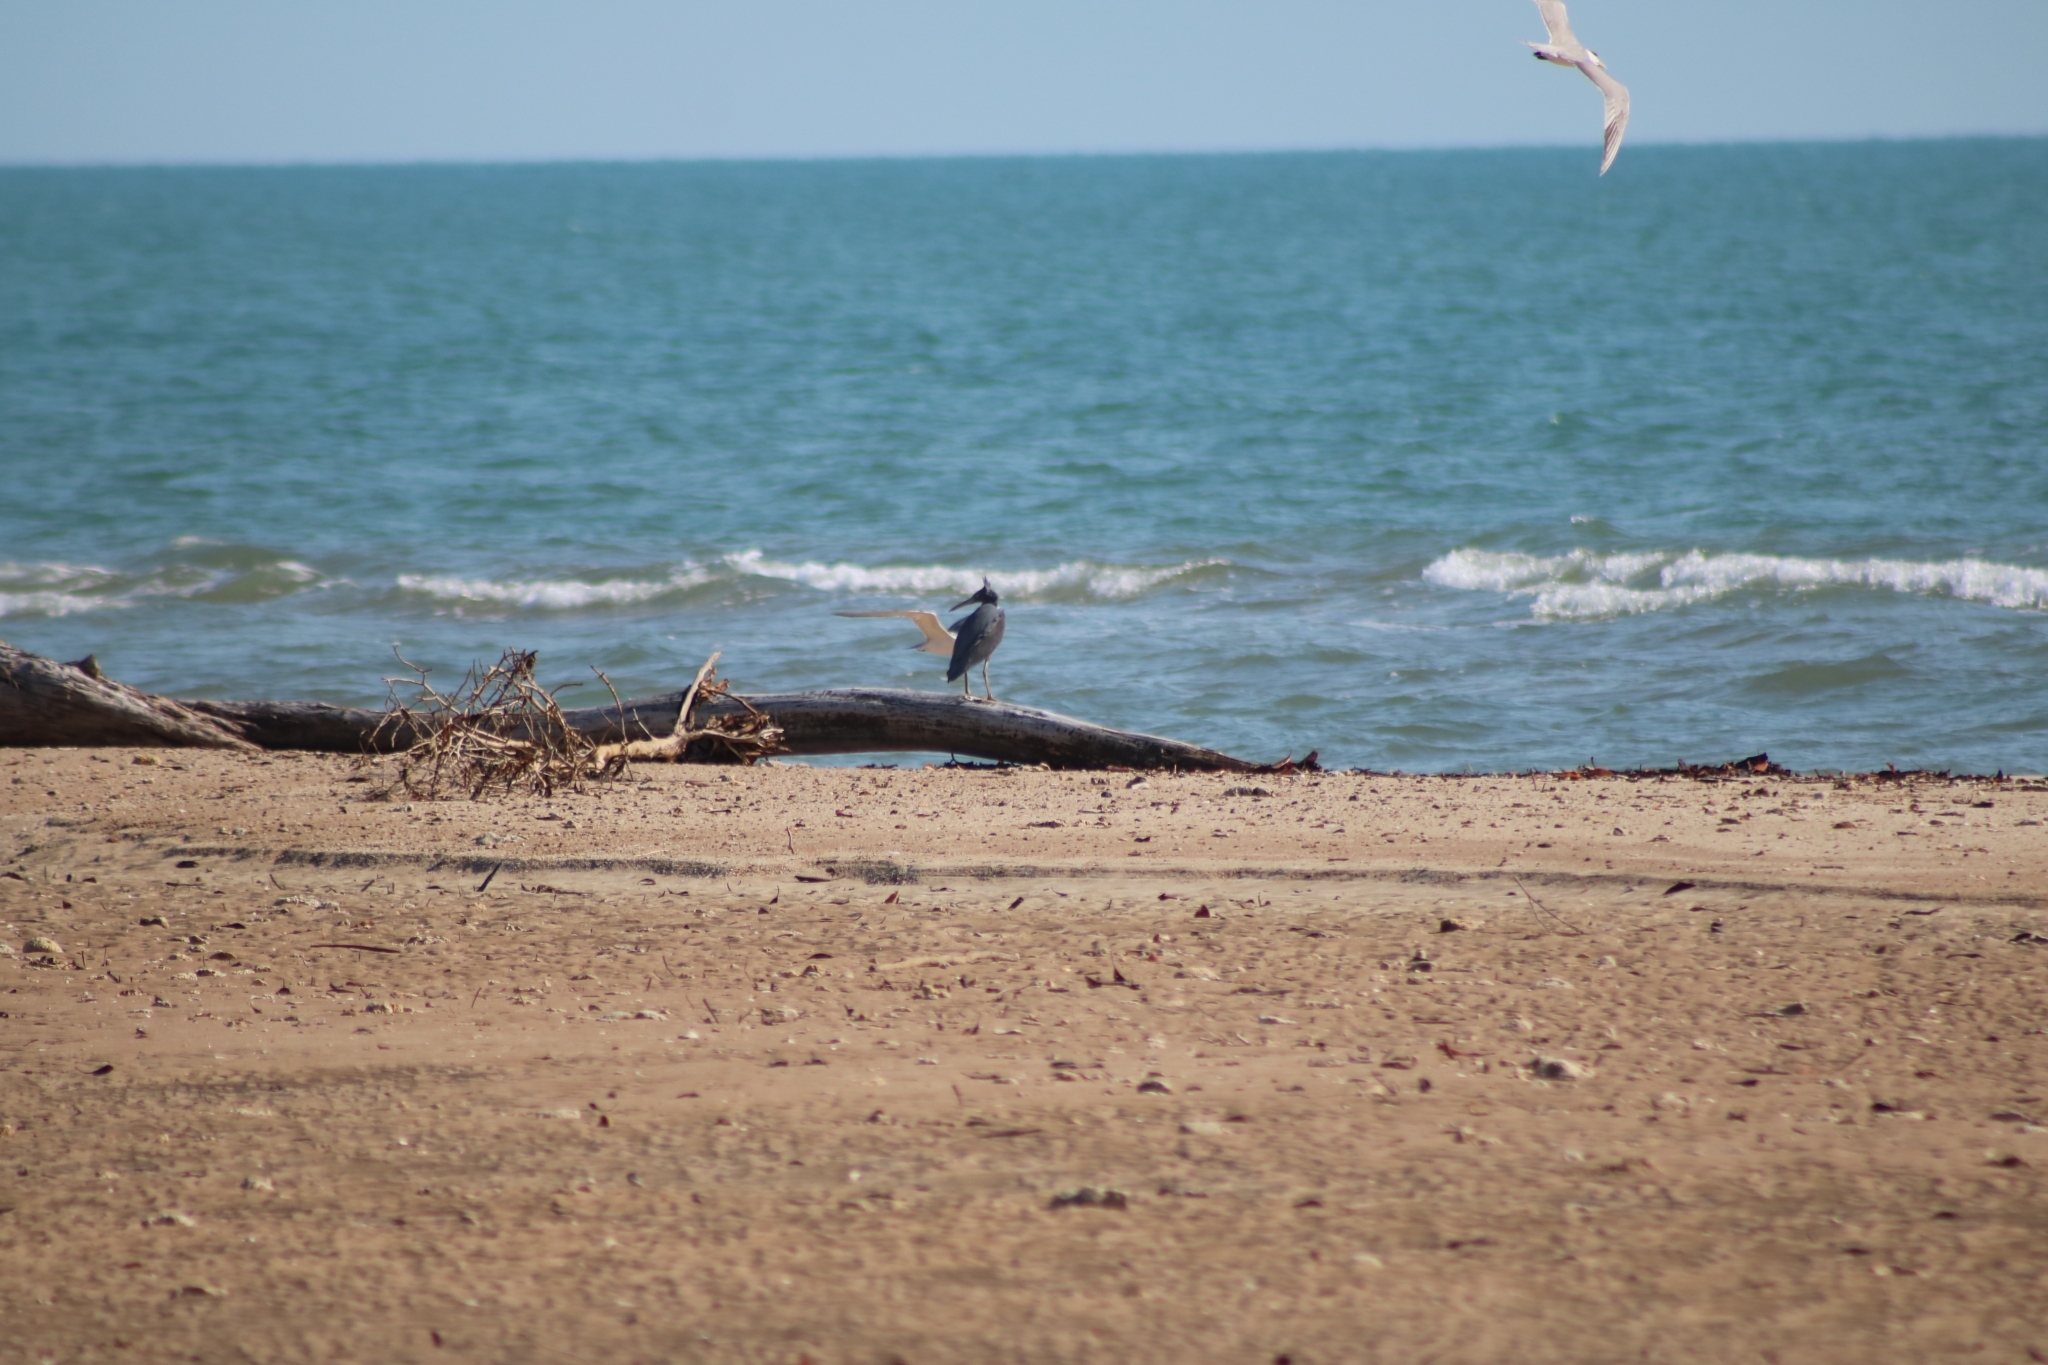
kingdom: Animalia
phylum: Chordata
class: Aves
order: Pelecaniformes
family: Ardeidae
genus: Egretta
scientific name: Egretta sacra
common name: Pacific reef heron
